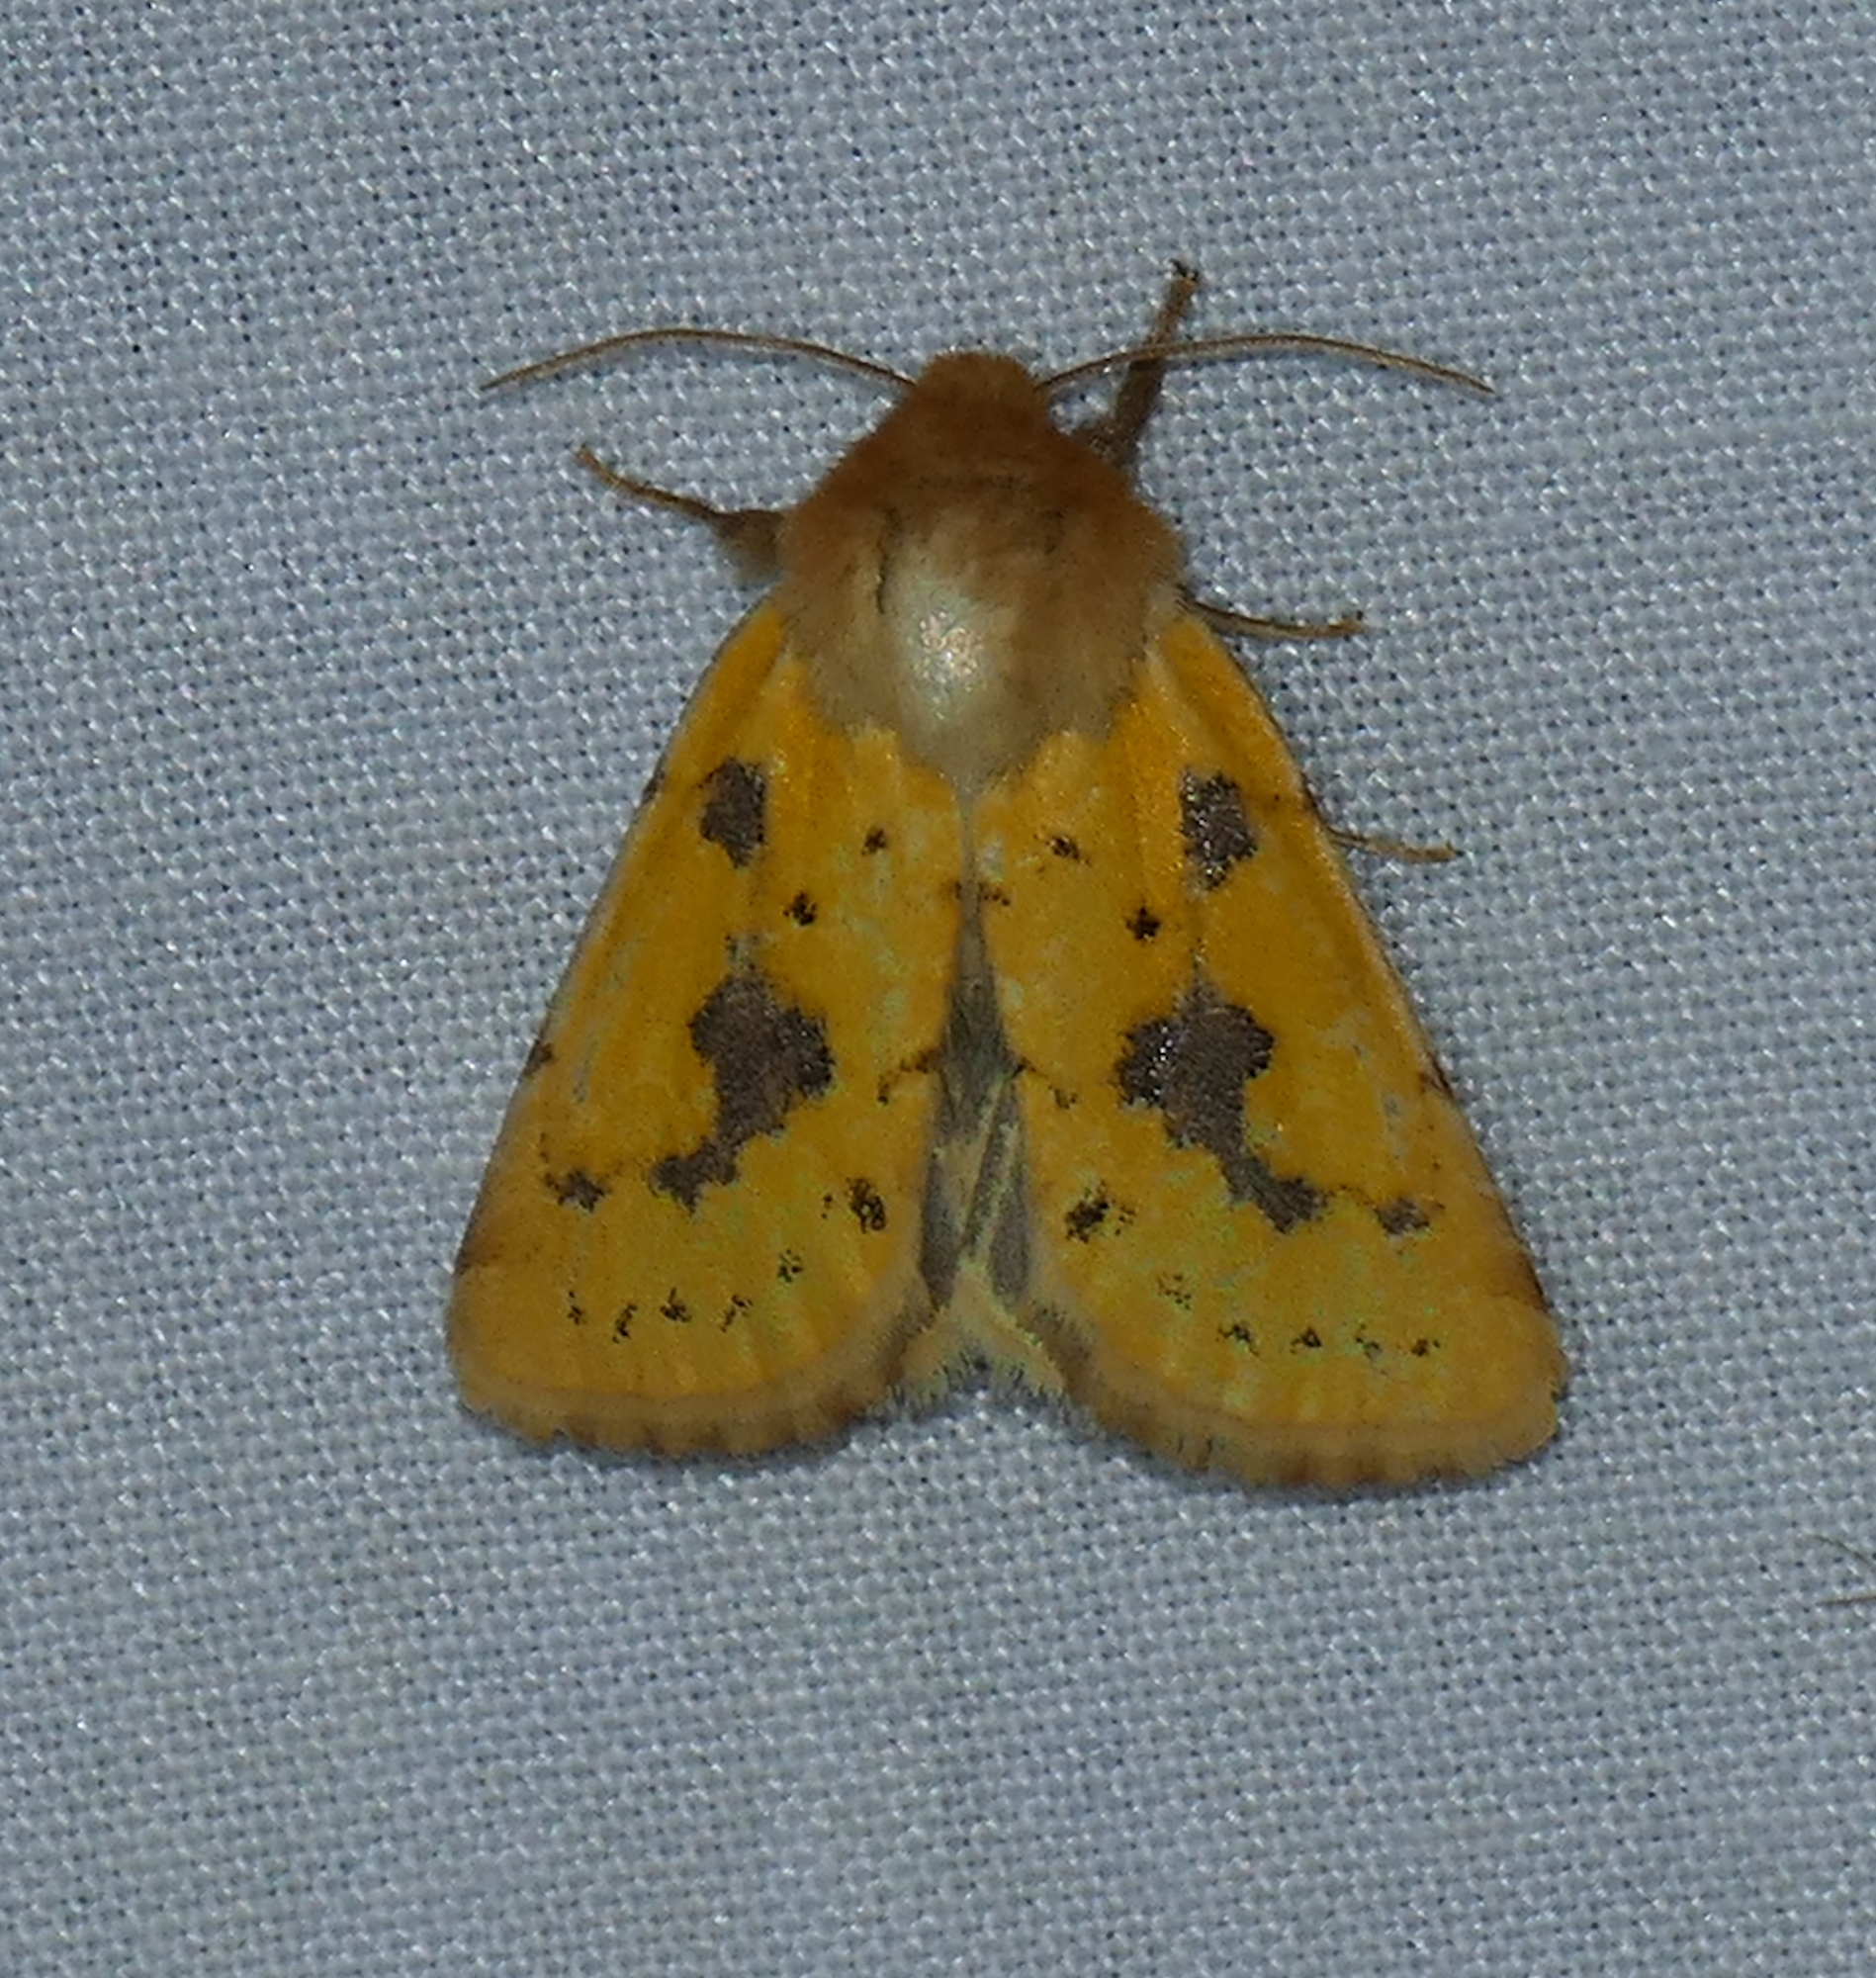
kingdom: Animalia
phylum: Arthropoda
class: Insecta
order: Lepidoptera
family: Noctuidae
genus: Nocloa
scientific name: Nocloa nanata
